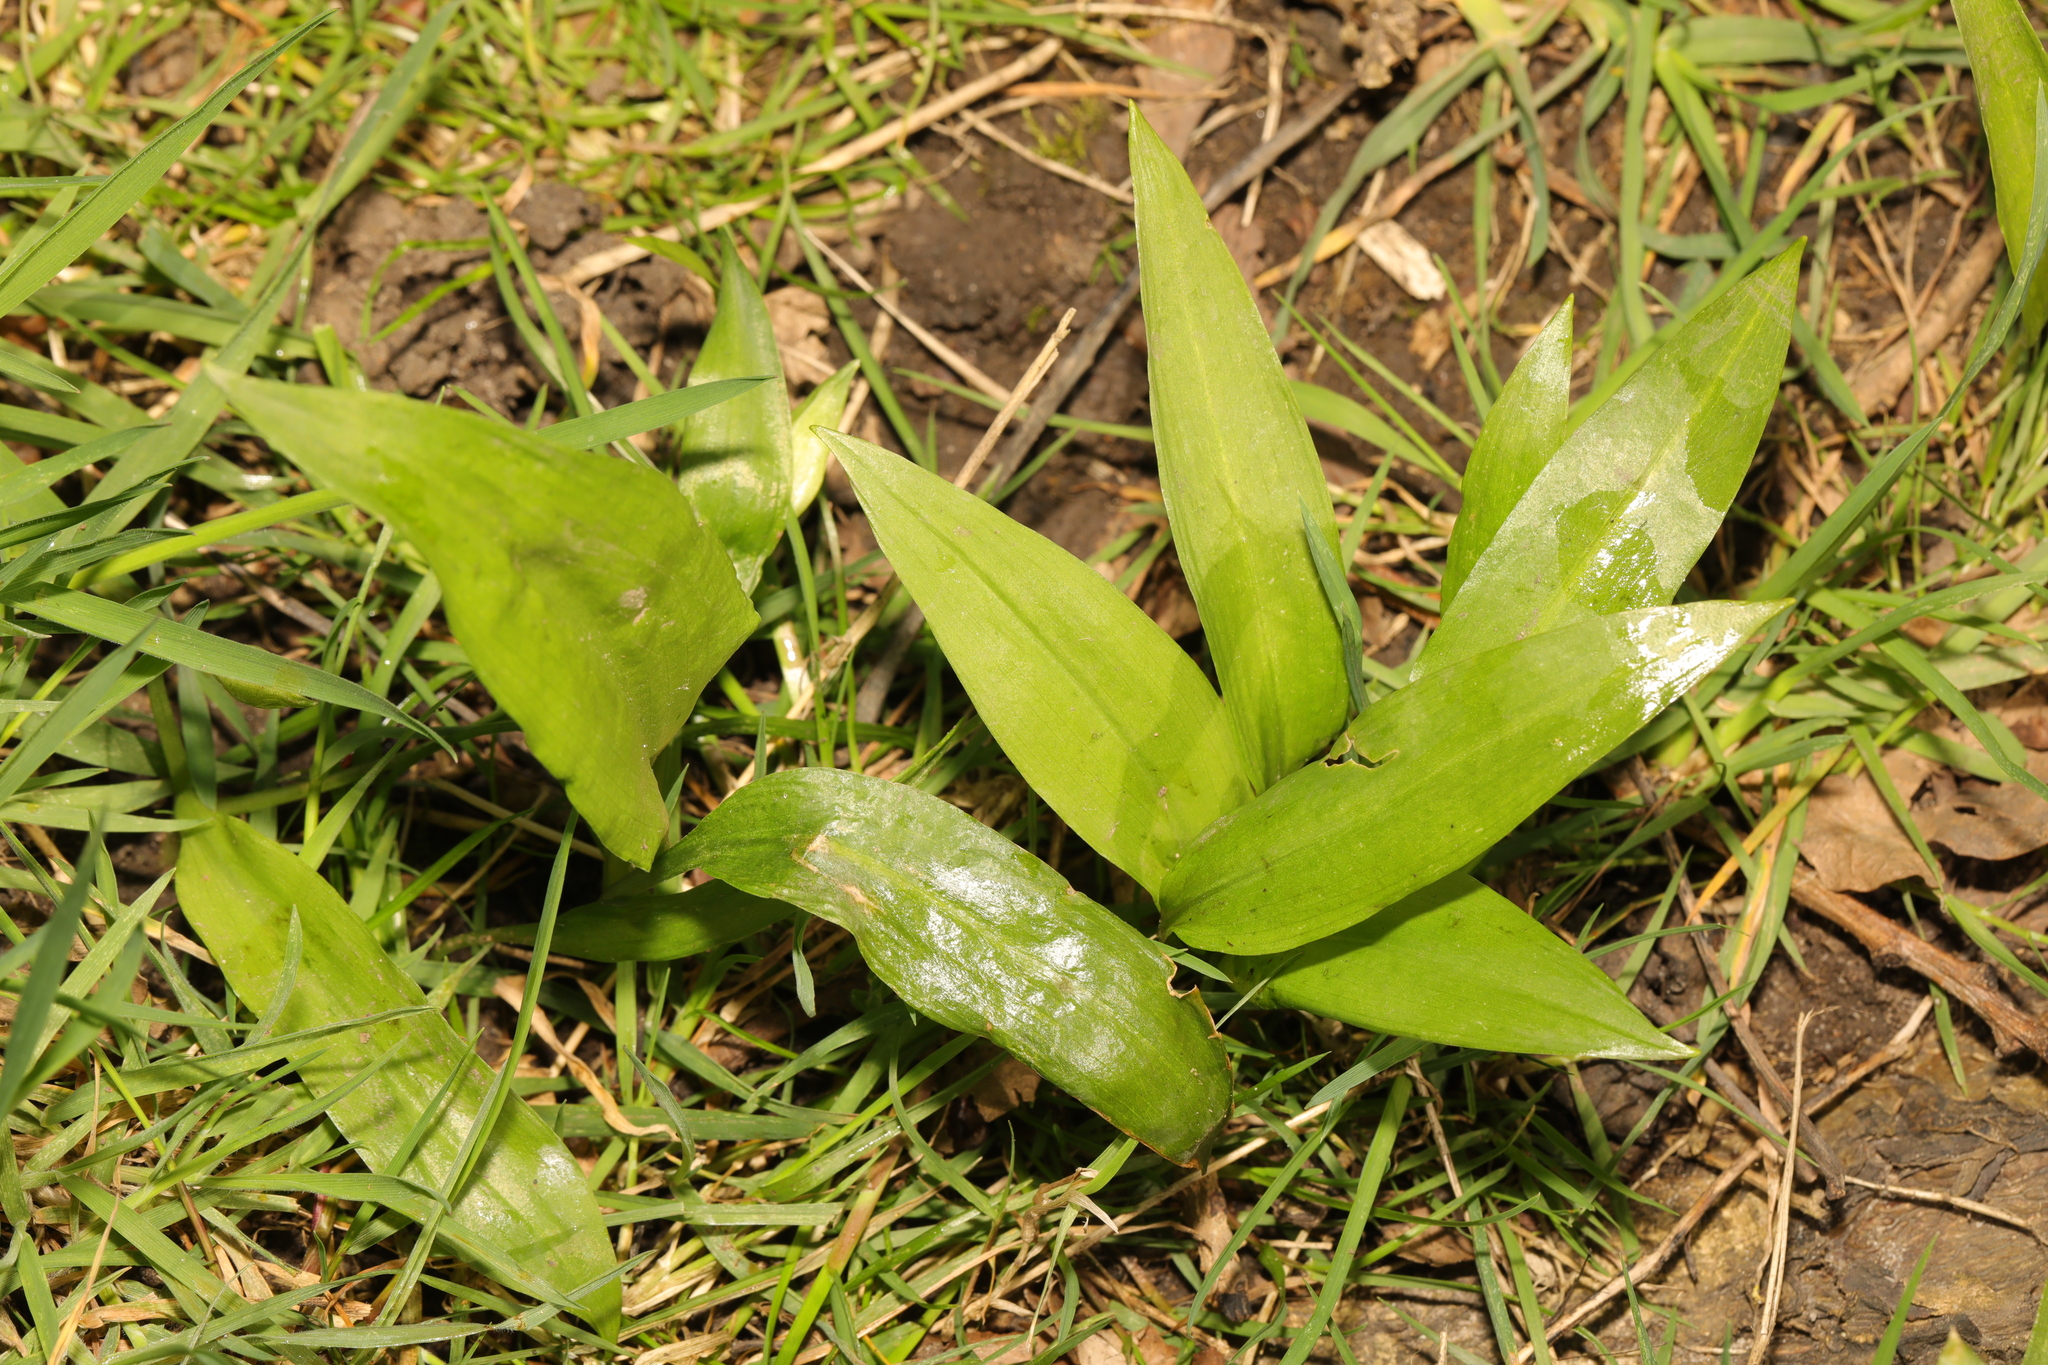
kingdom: Plantae
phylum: Tracheophyta
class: Liliopsida
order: Asparagales
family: Amaryllidaceae
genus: Allium
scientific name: Allium ursinum
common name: Ramsons
